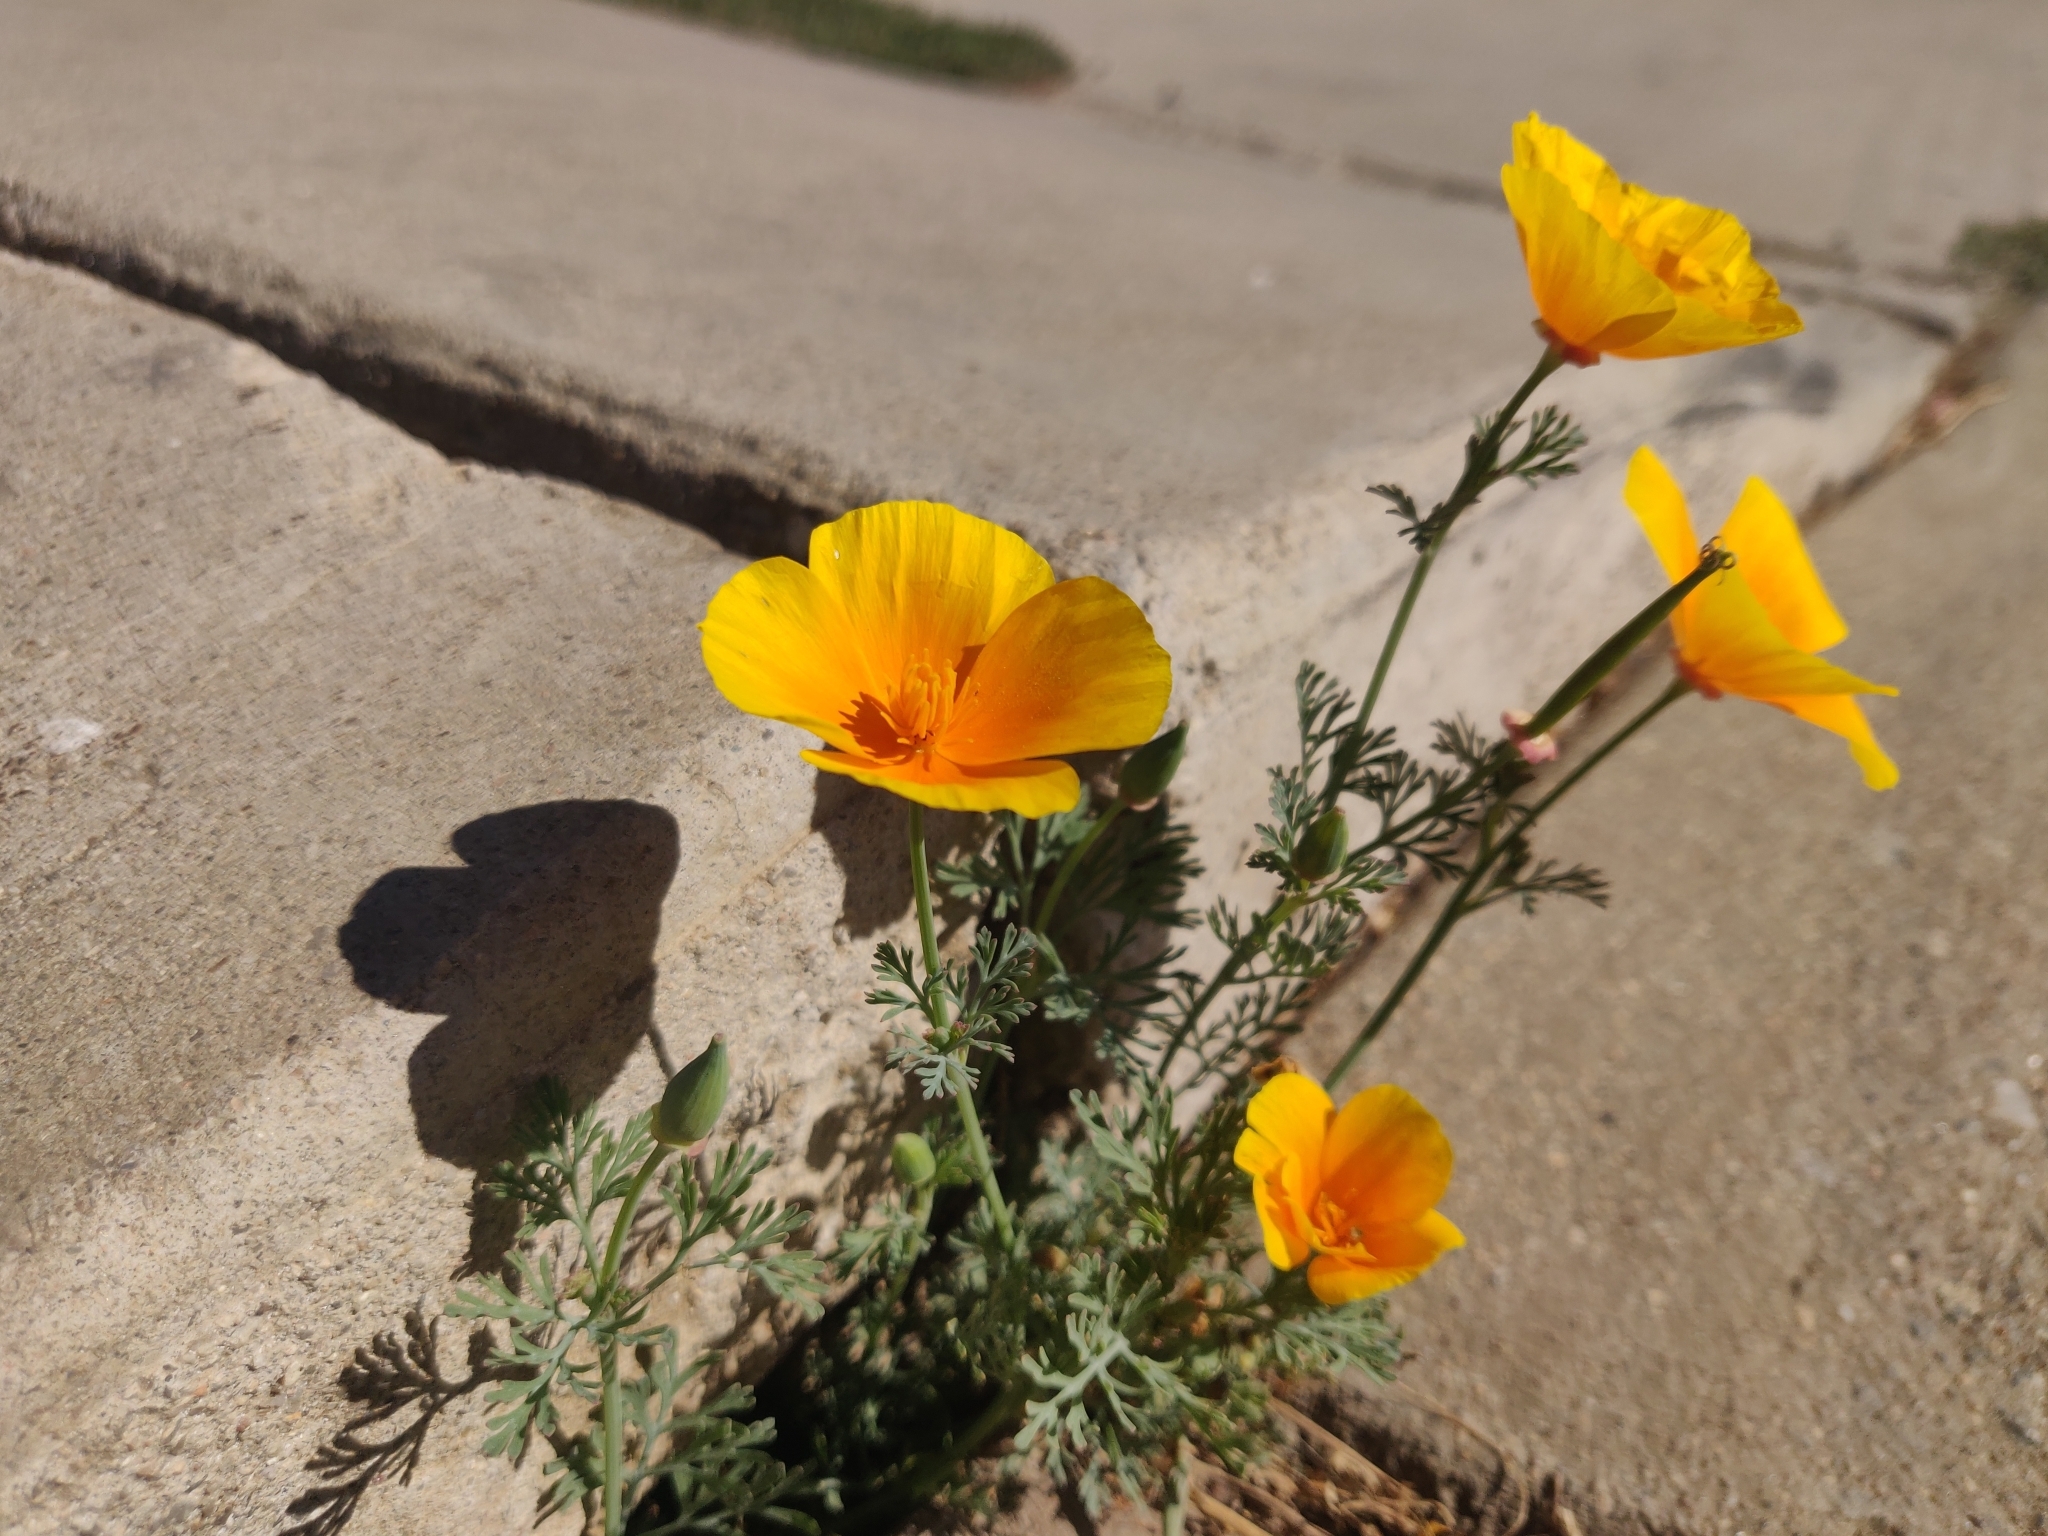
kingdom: Plantae
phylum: Tracheophyta
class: Magnoliopsida
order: Ranunculales
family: Papaveraceae
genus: Eschscholzia
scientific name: Eschscholzia californica
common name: California poppy
